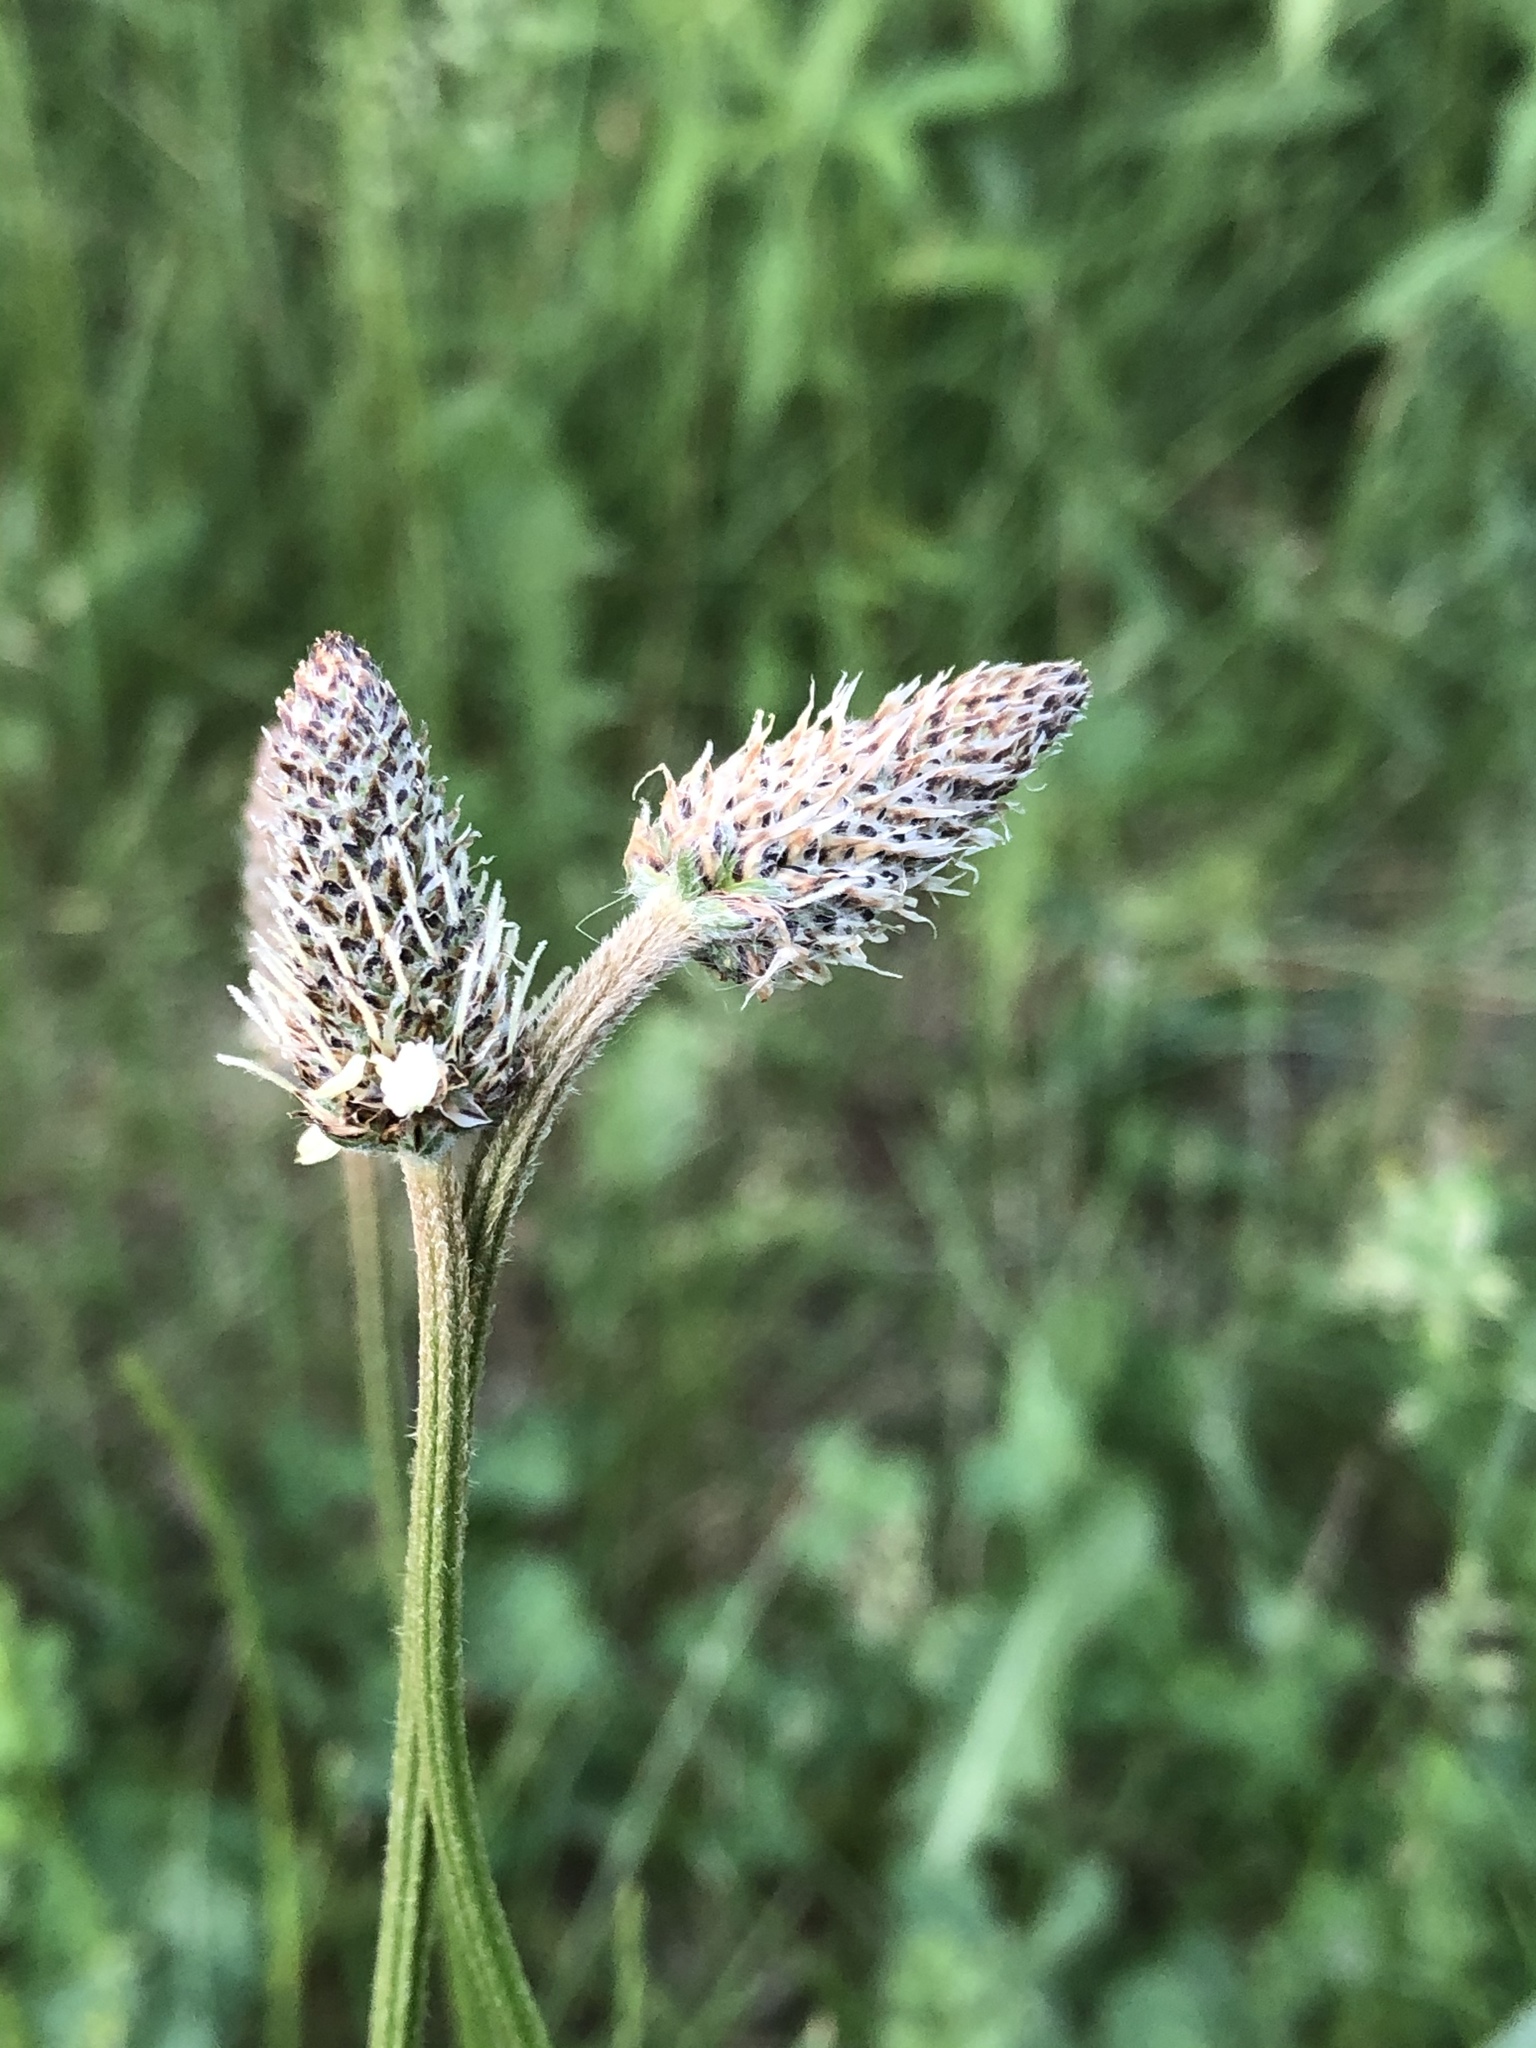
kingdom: Plantae
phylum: Tracheophyta
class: Magnoliopsida
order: Lamiales
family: Plantaginaceae
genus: Plantago
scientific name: Plantago lanceolata
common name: Ribwort plantain
